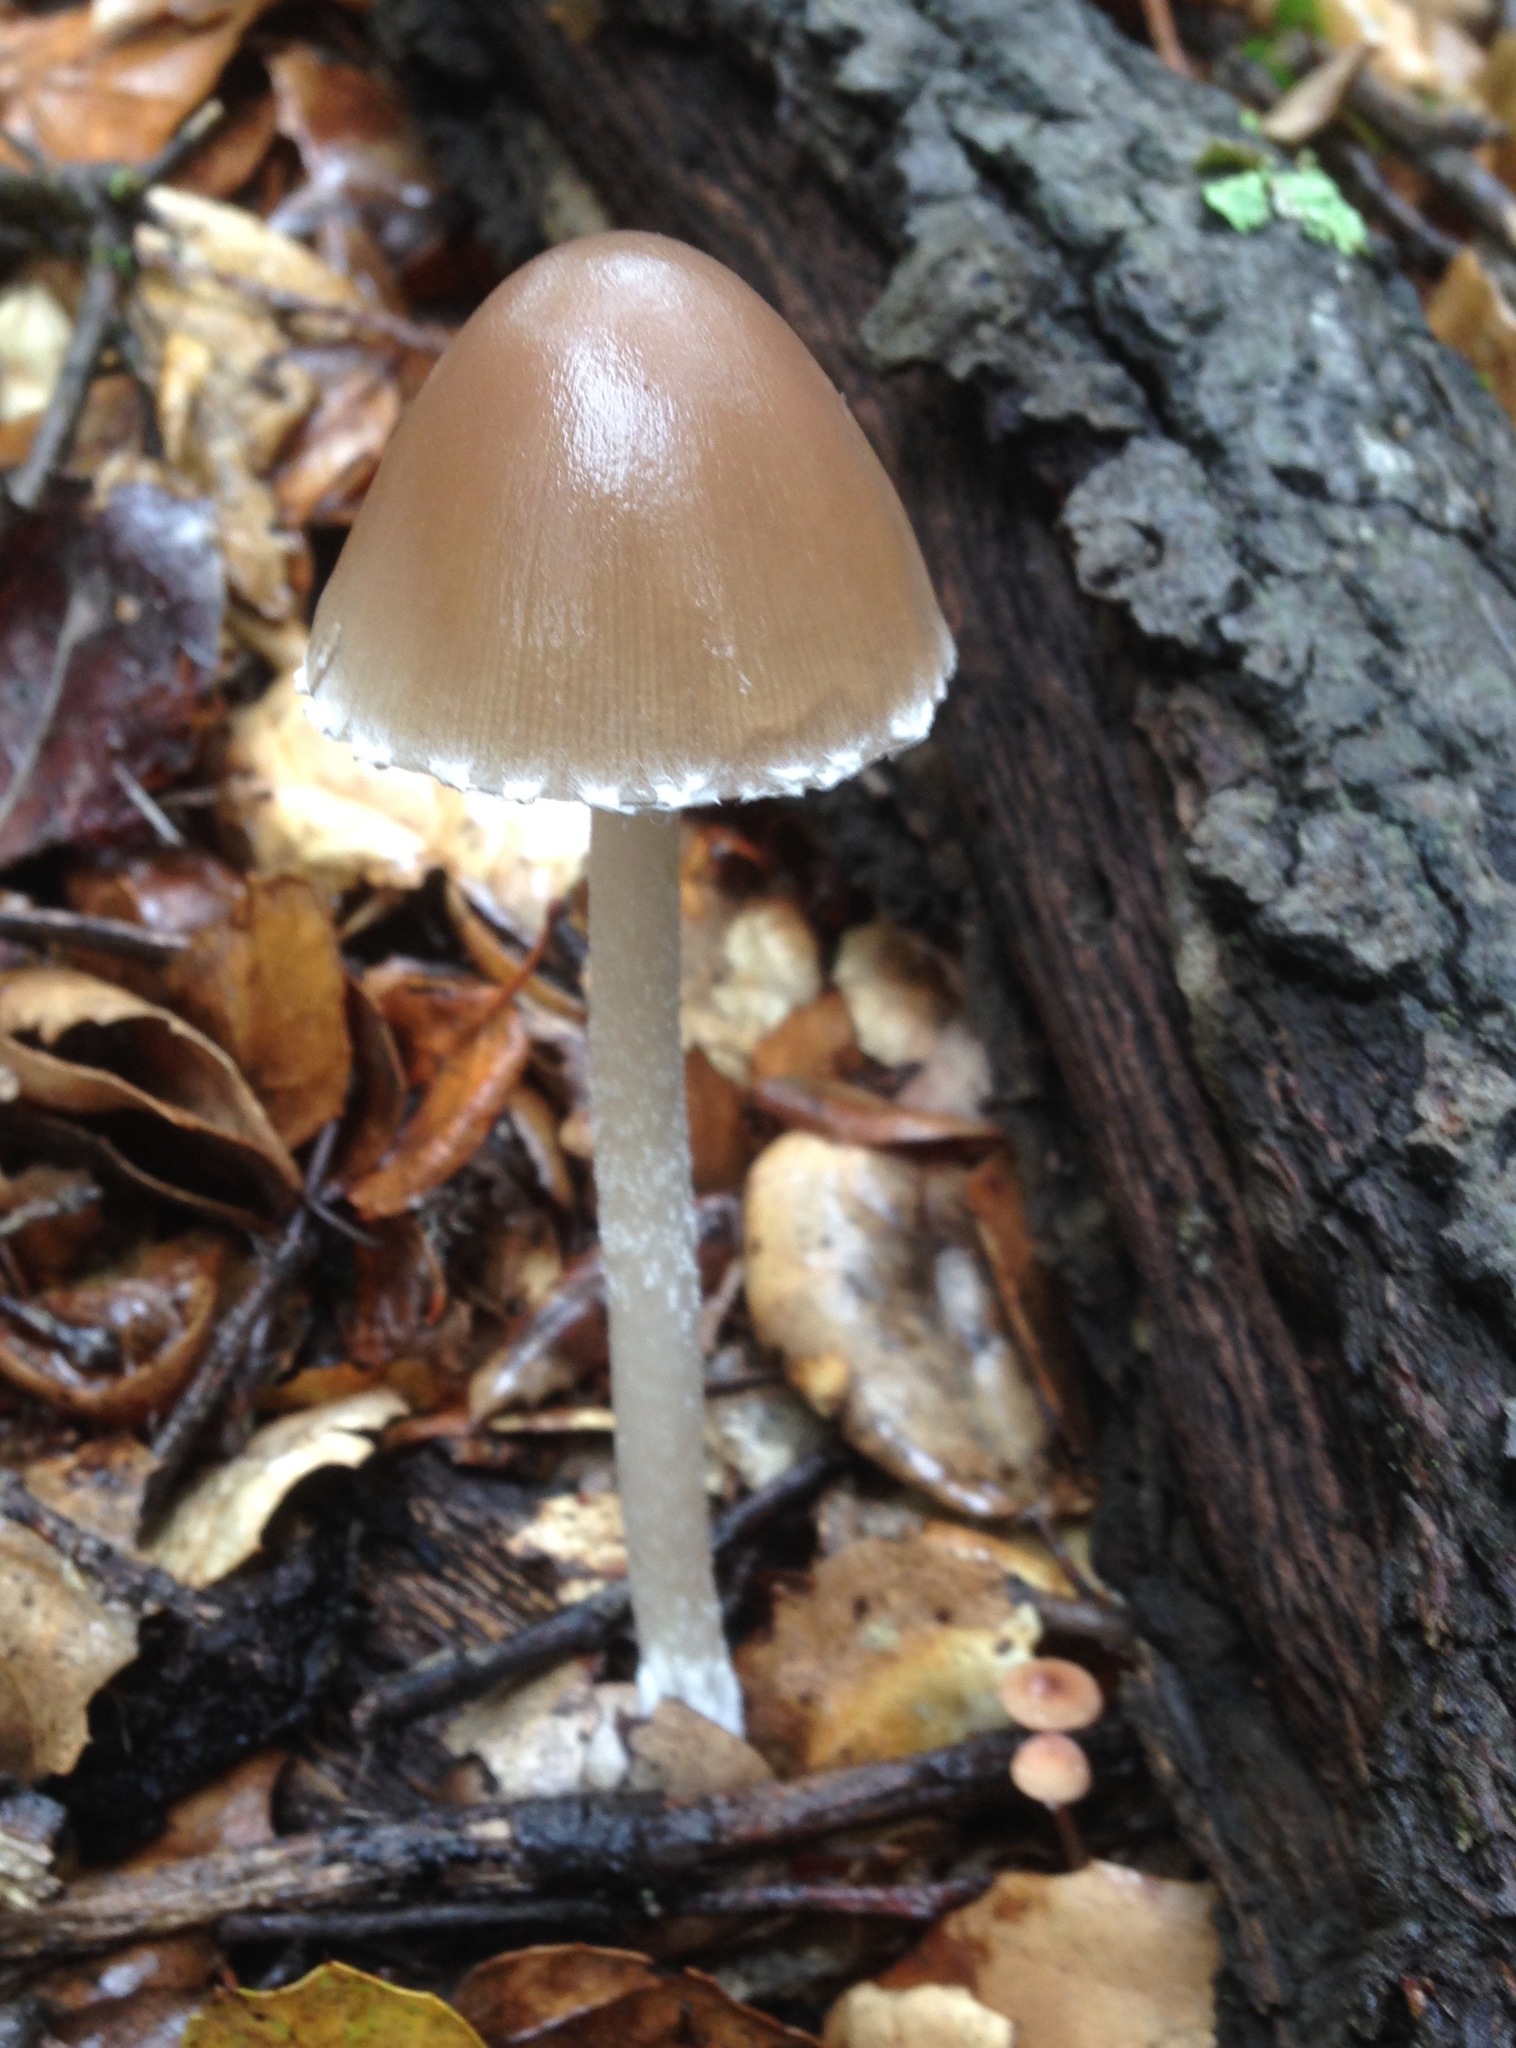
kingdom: Fungi
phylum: Basidiomycota
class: Agaricomycetes
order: Agaricales
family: Psathyrellaceae
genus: Psathyrella
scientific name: Psathyrella longipes
